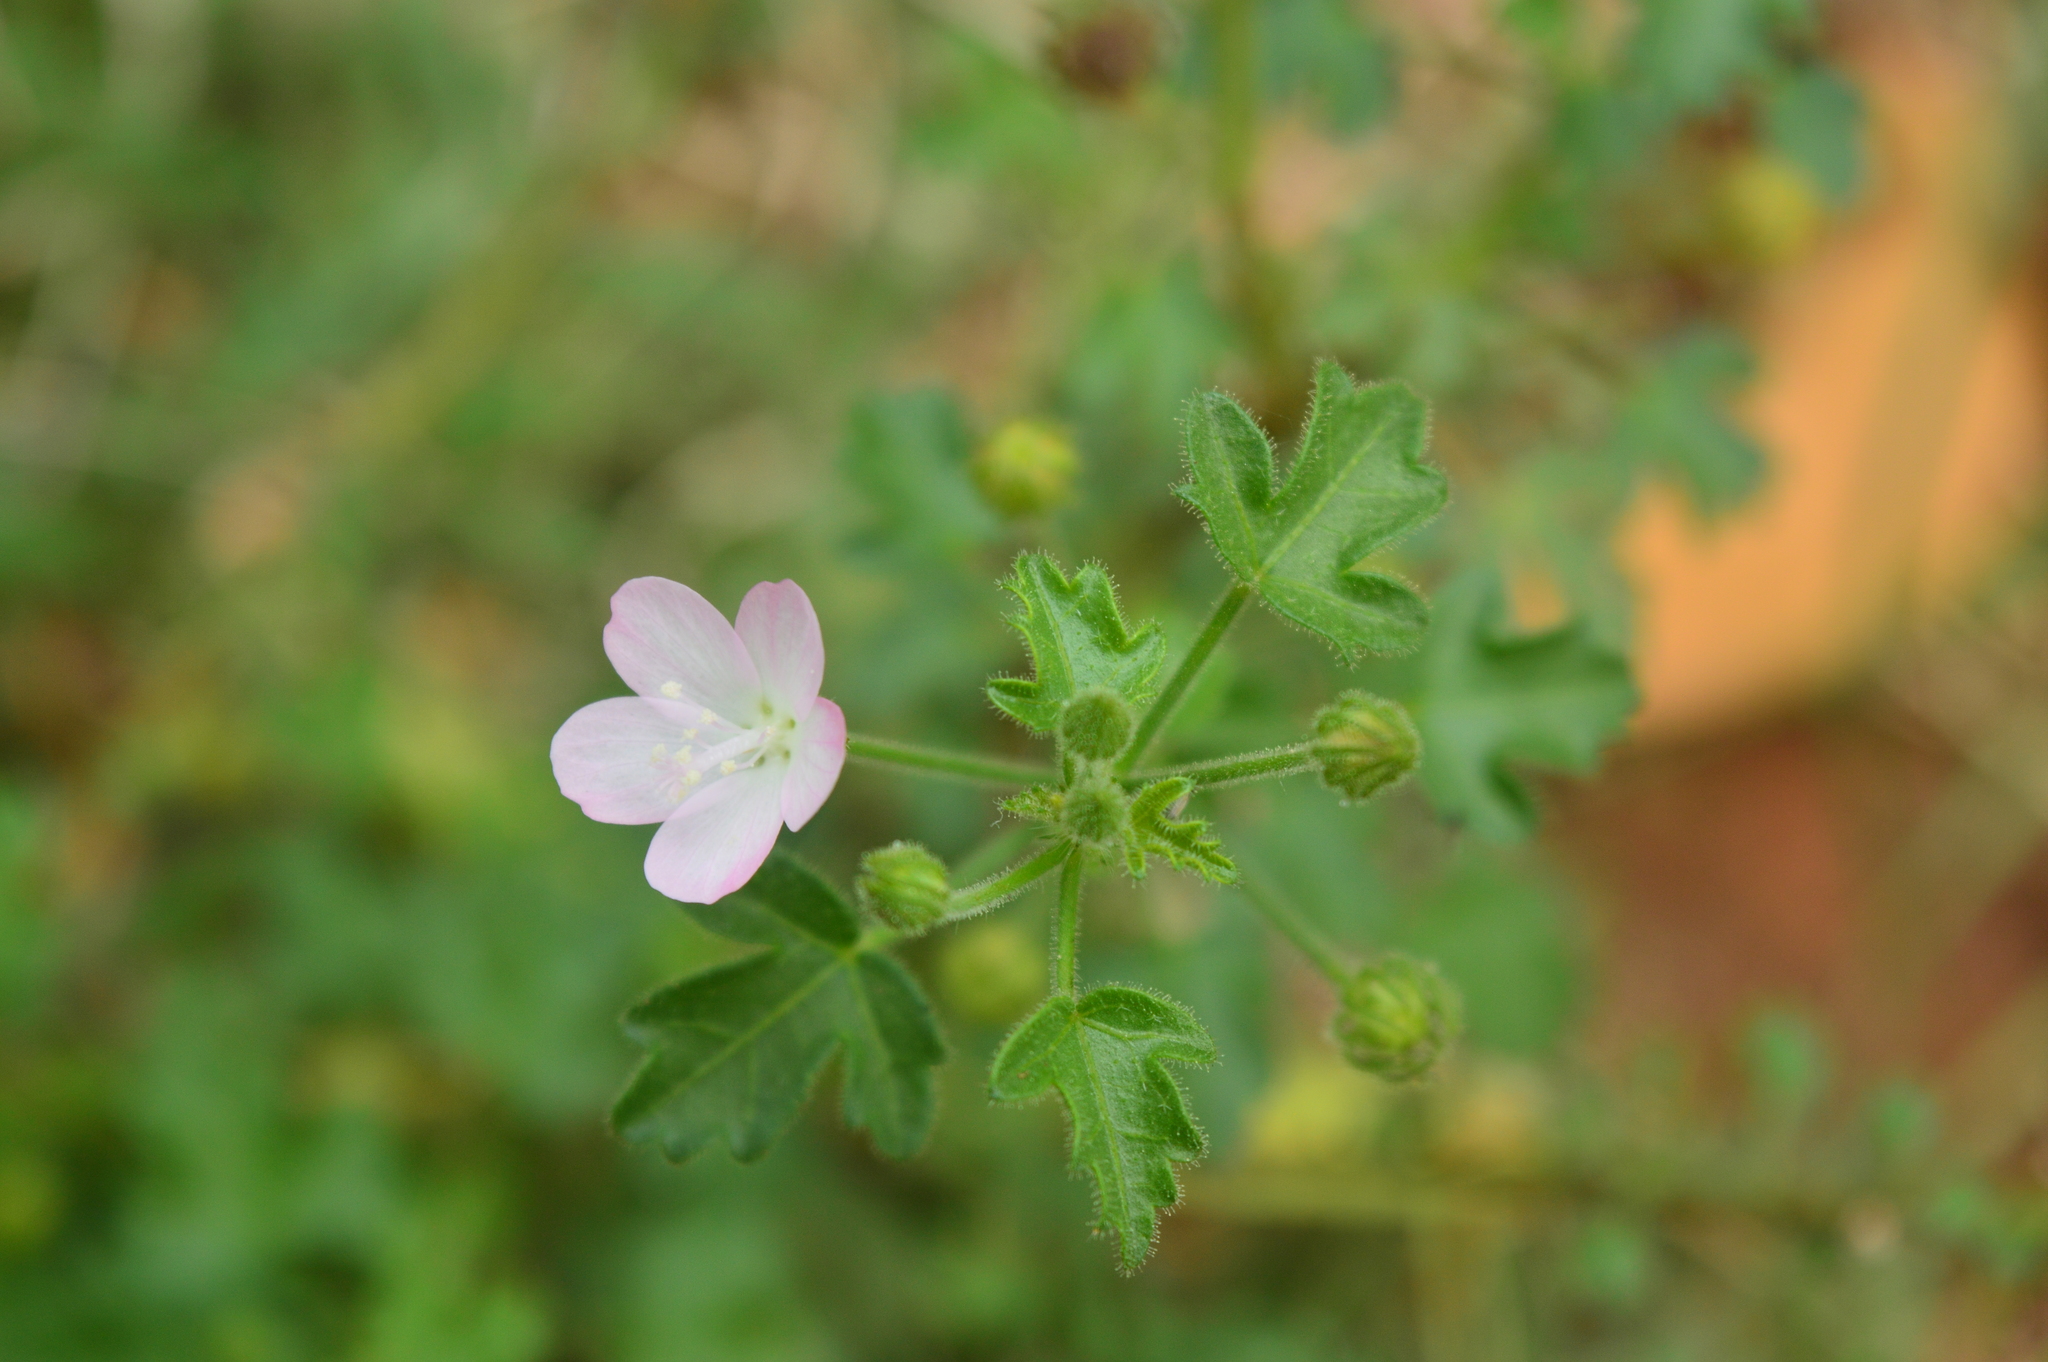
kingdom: Plantae
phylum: Tracheophyta
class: Magnoliopsida
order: Malvales
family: Malvaceae
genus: Pavonia
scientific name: Pavonia zeylanica
